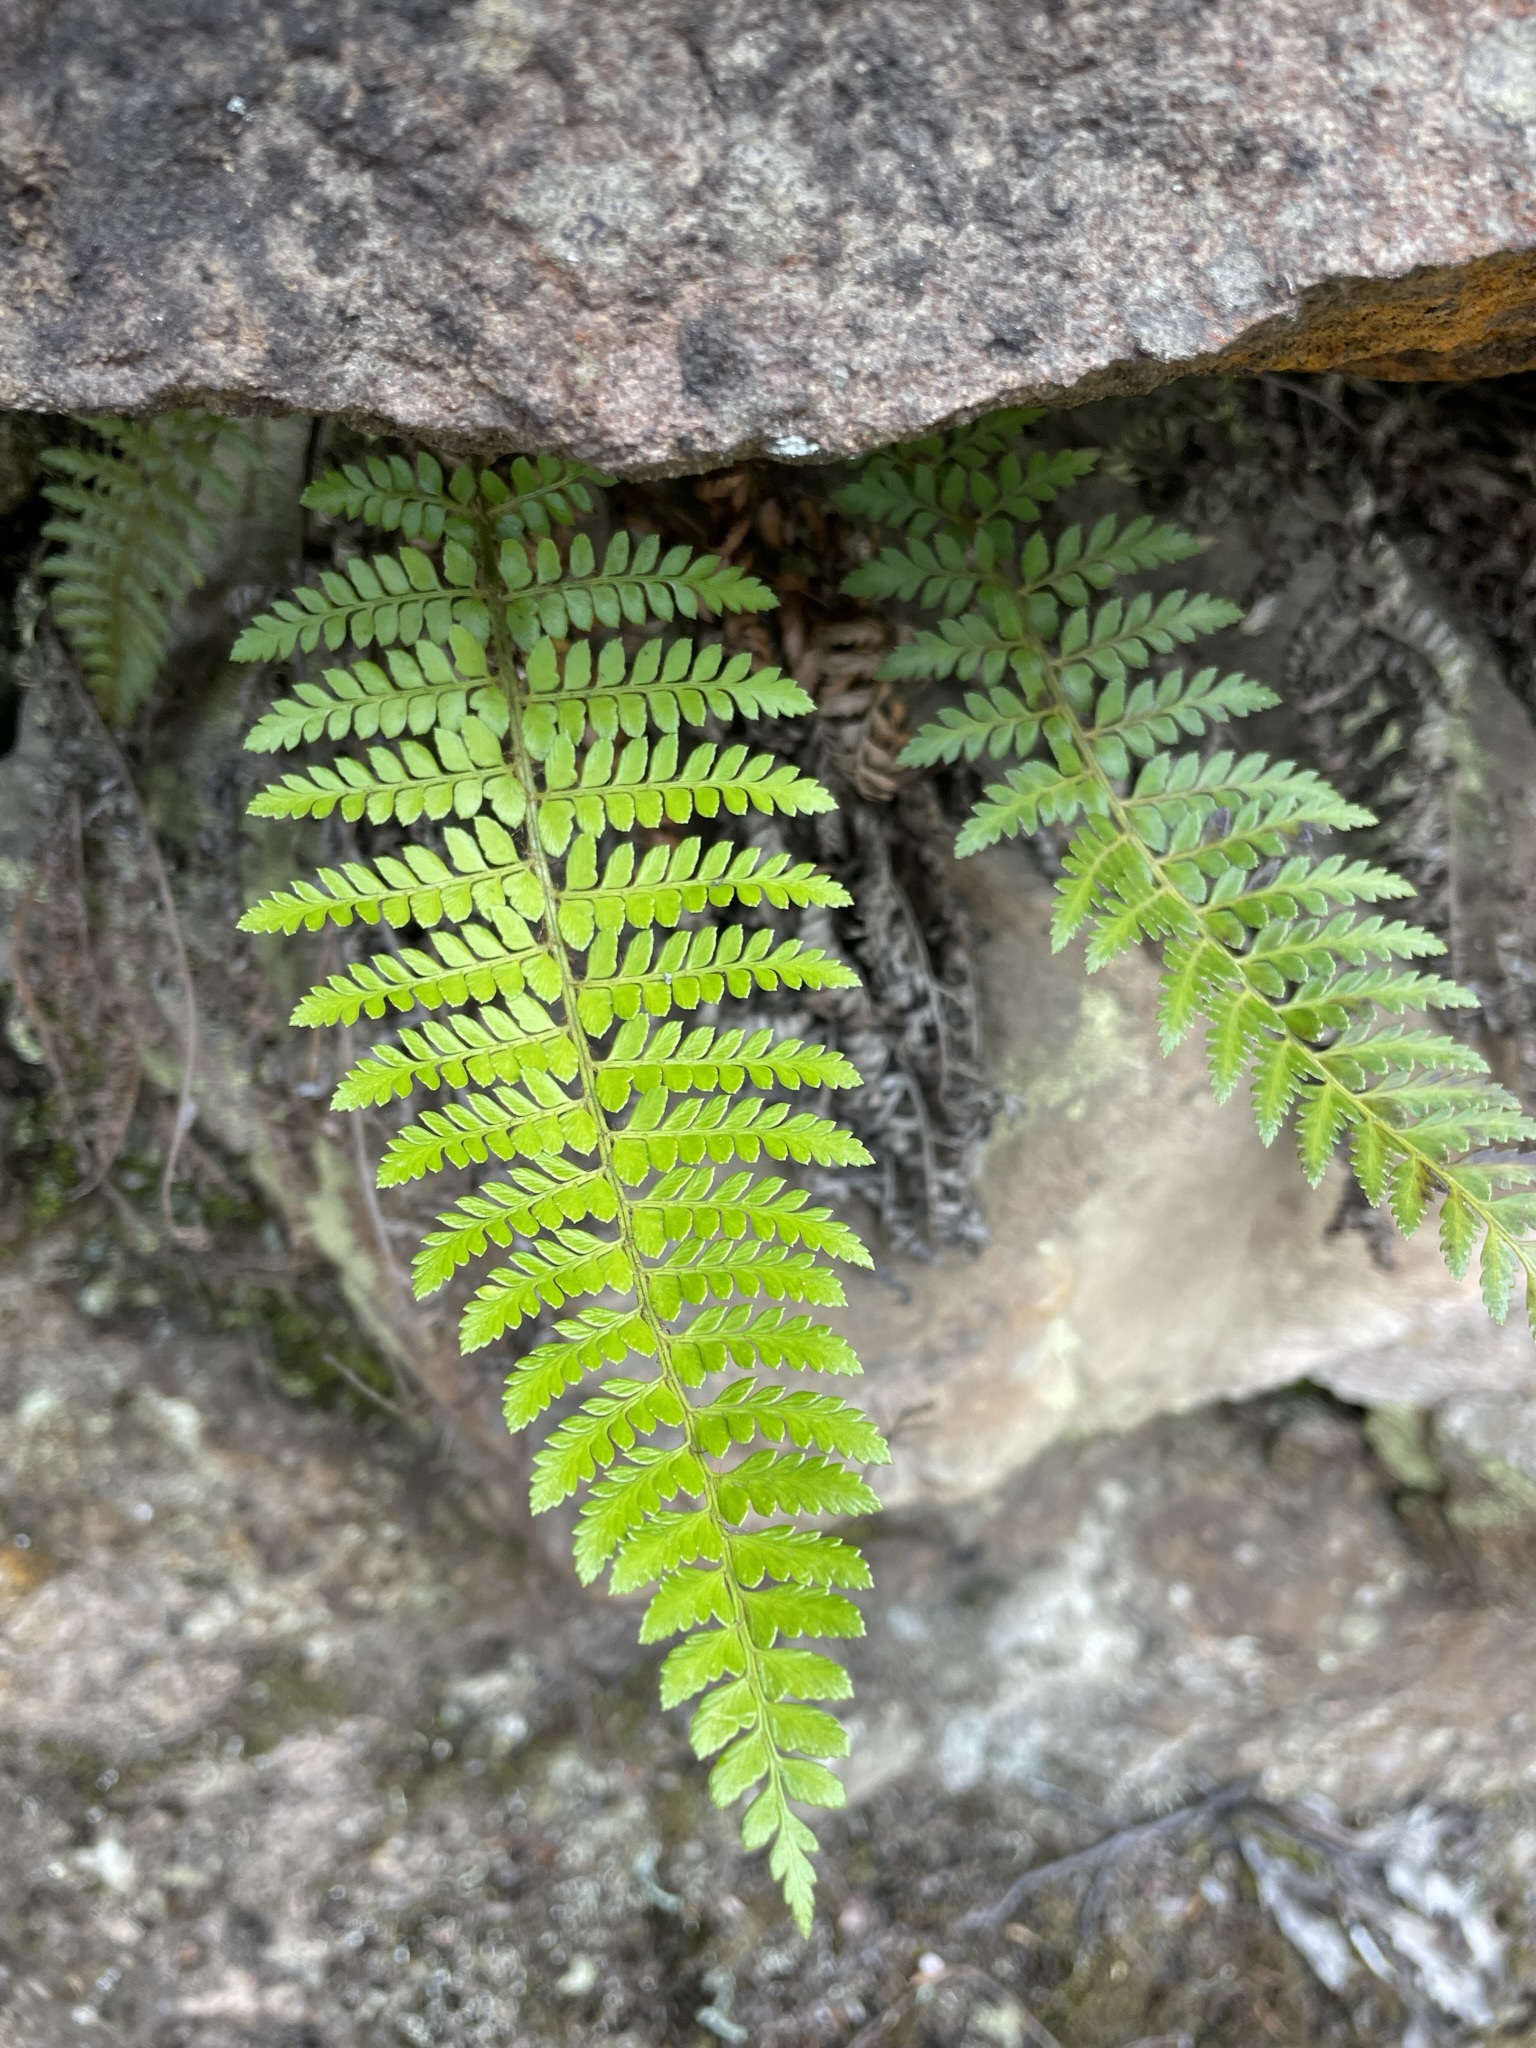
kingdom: Plantae
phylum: Tracheophyta
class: Polypodiopsida
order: Polypodiales
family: Dryopteridaceae
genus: Polystichum
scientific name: Polystichum proliferum
